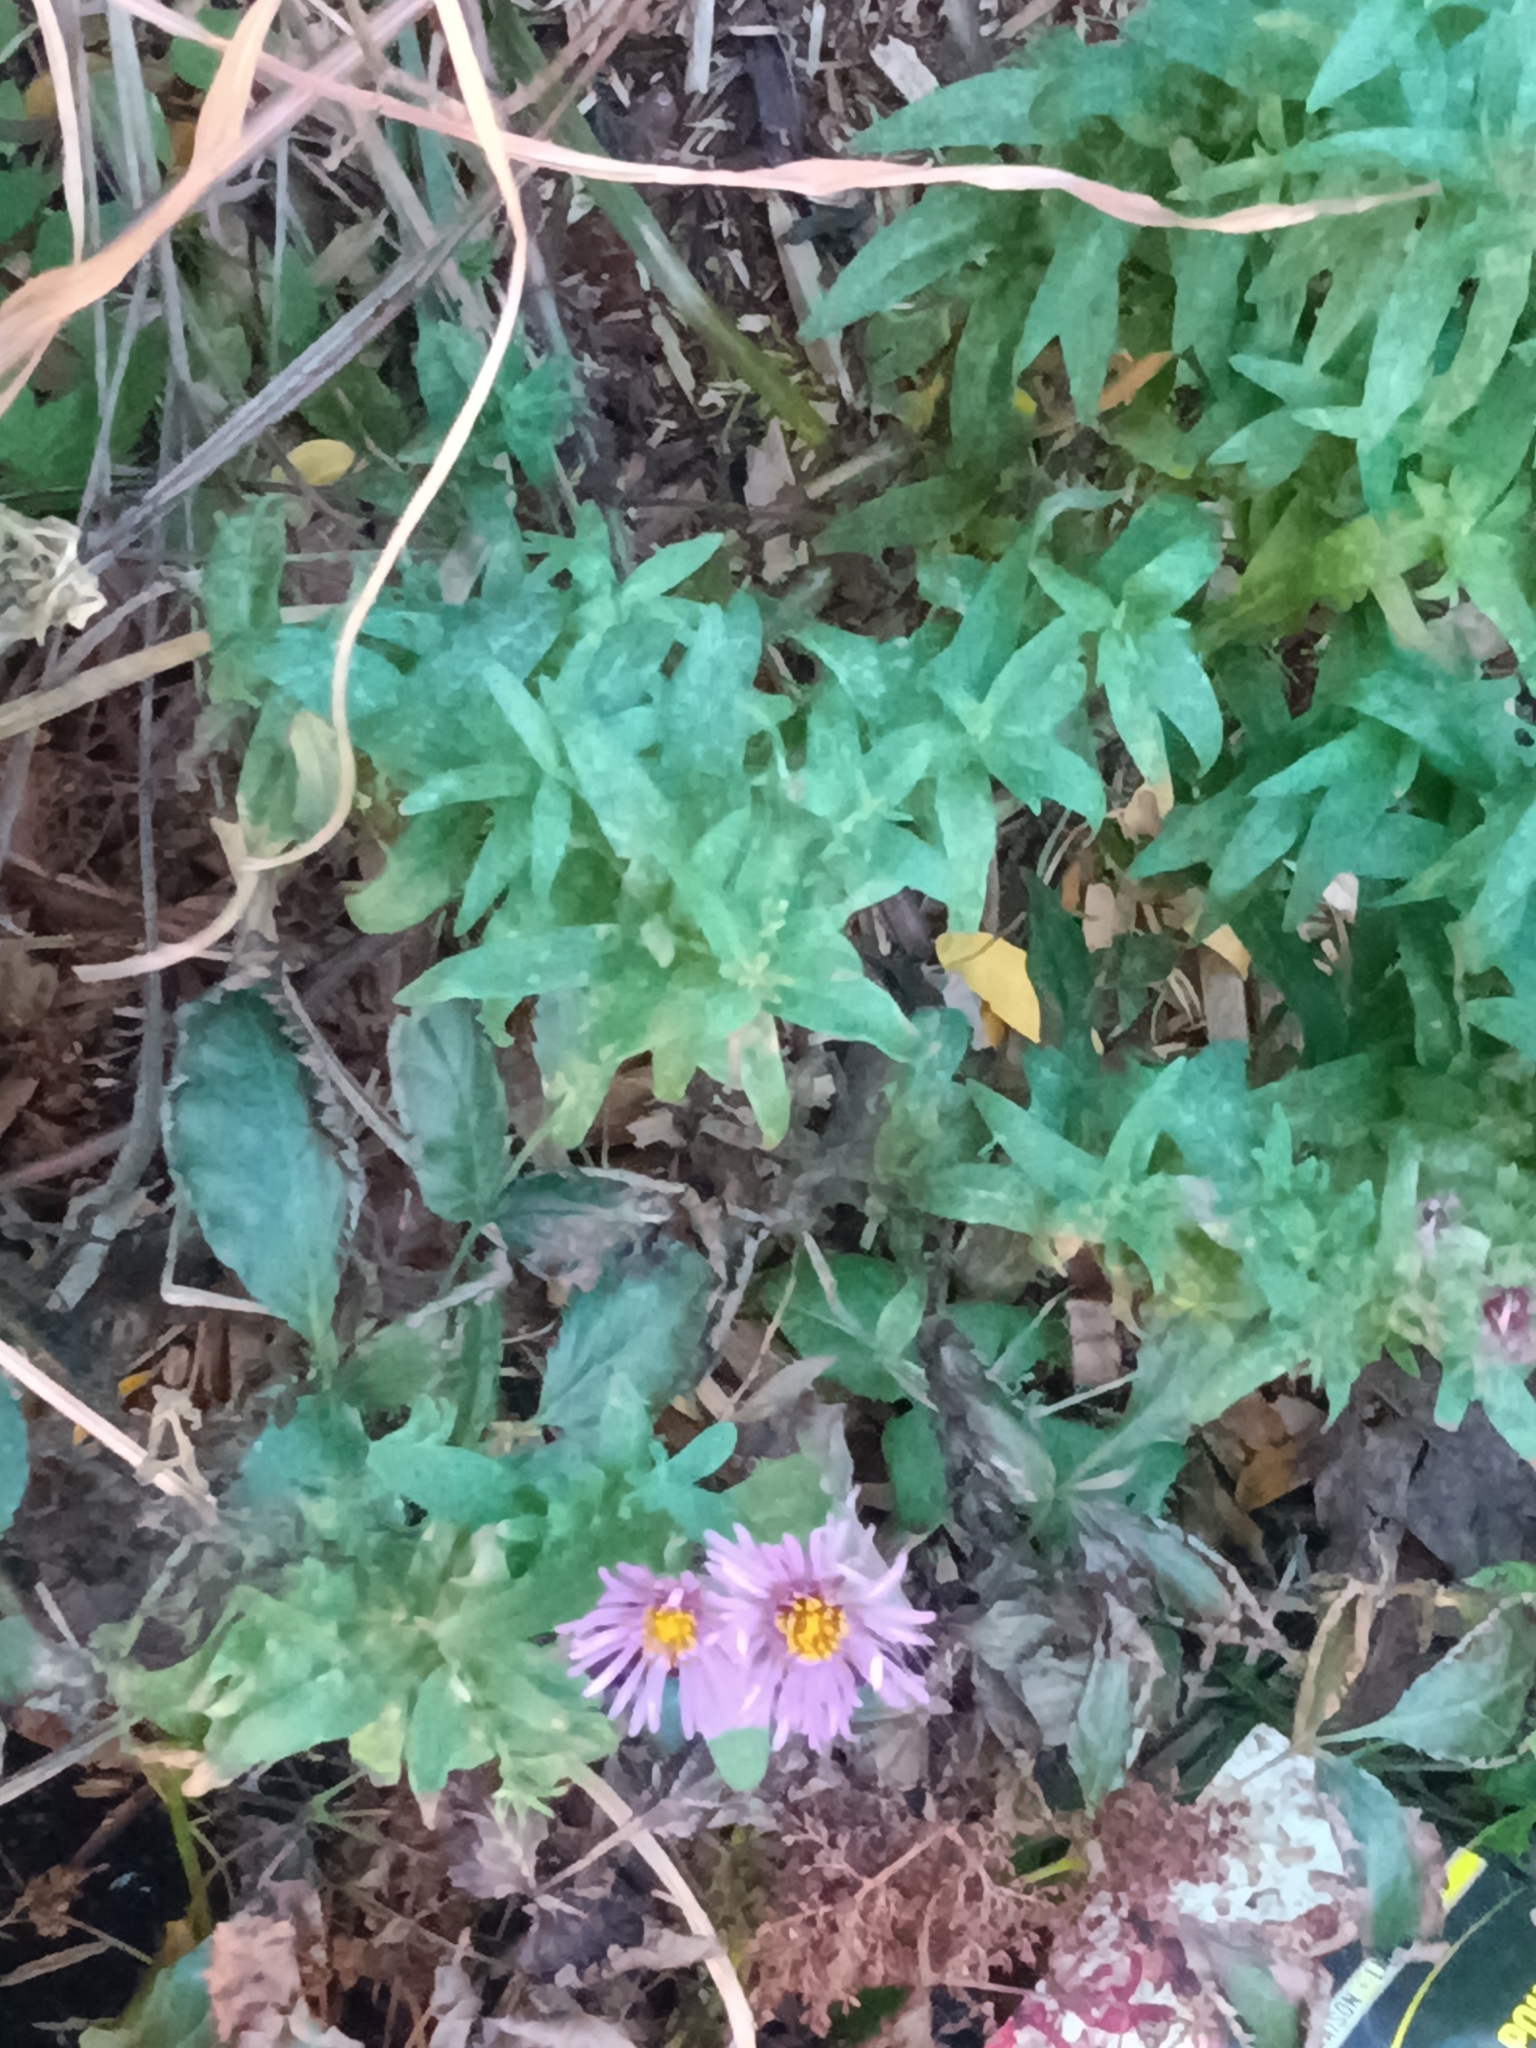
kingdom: Plantae
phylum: Tracheophyta
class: Magnoliopsida
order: Asterales
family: Asteraceae
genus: Symphyotrichum
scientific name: Symphyotrichum novae-angliae
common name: Michaelmas daisy
